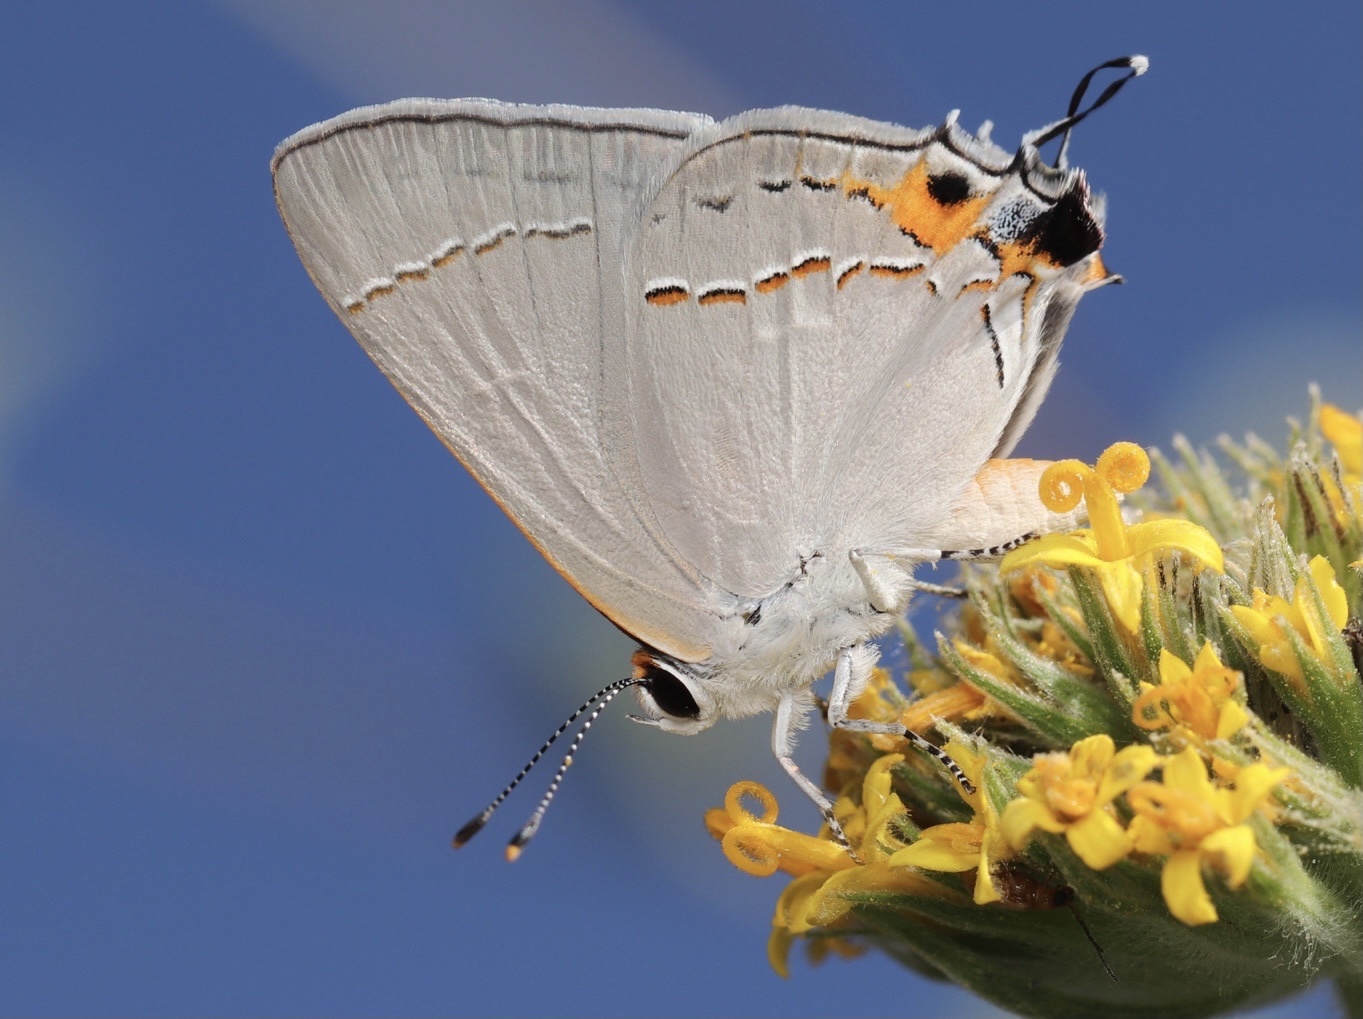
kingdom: Animalia
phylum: Arthropoda
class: Insecta
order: Lepidoptera
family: Lycaenidae
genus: Strymon
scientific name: Strymon melinus
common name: Gray hairstreak
